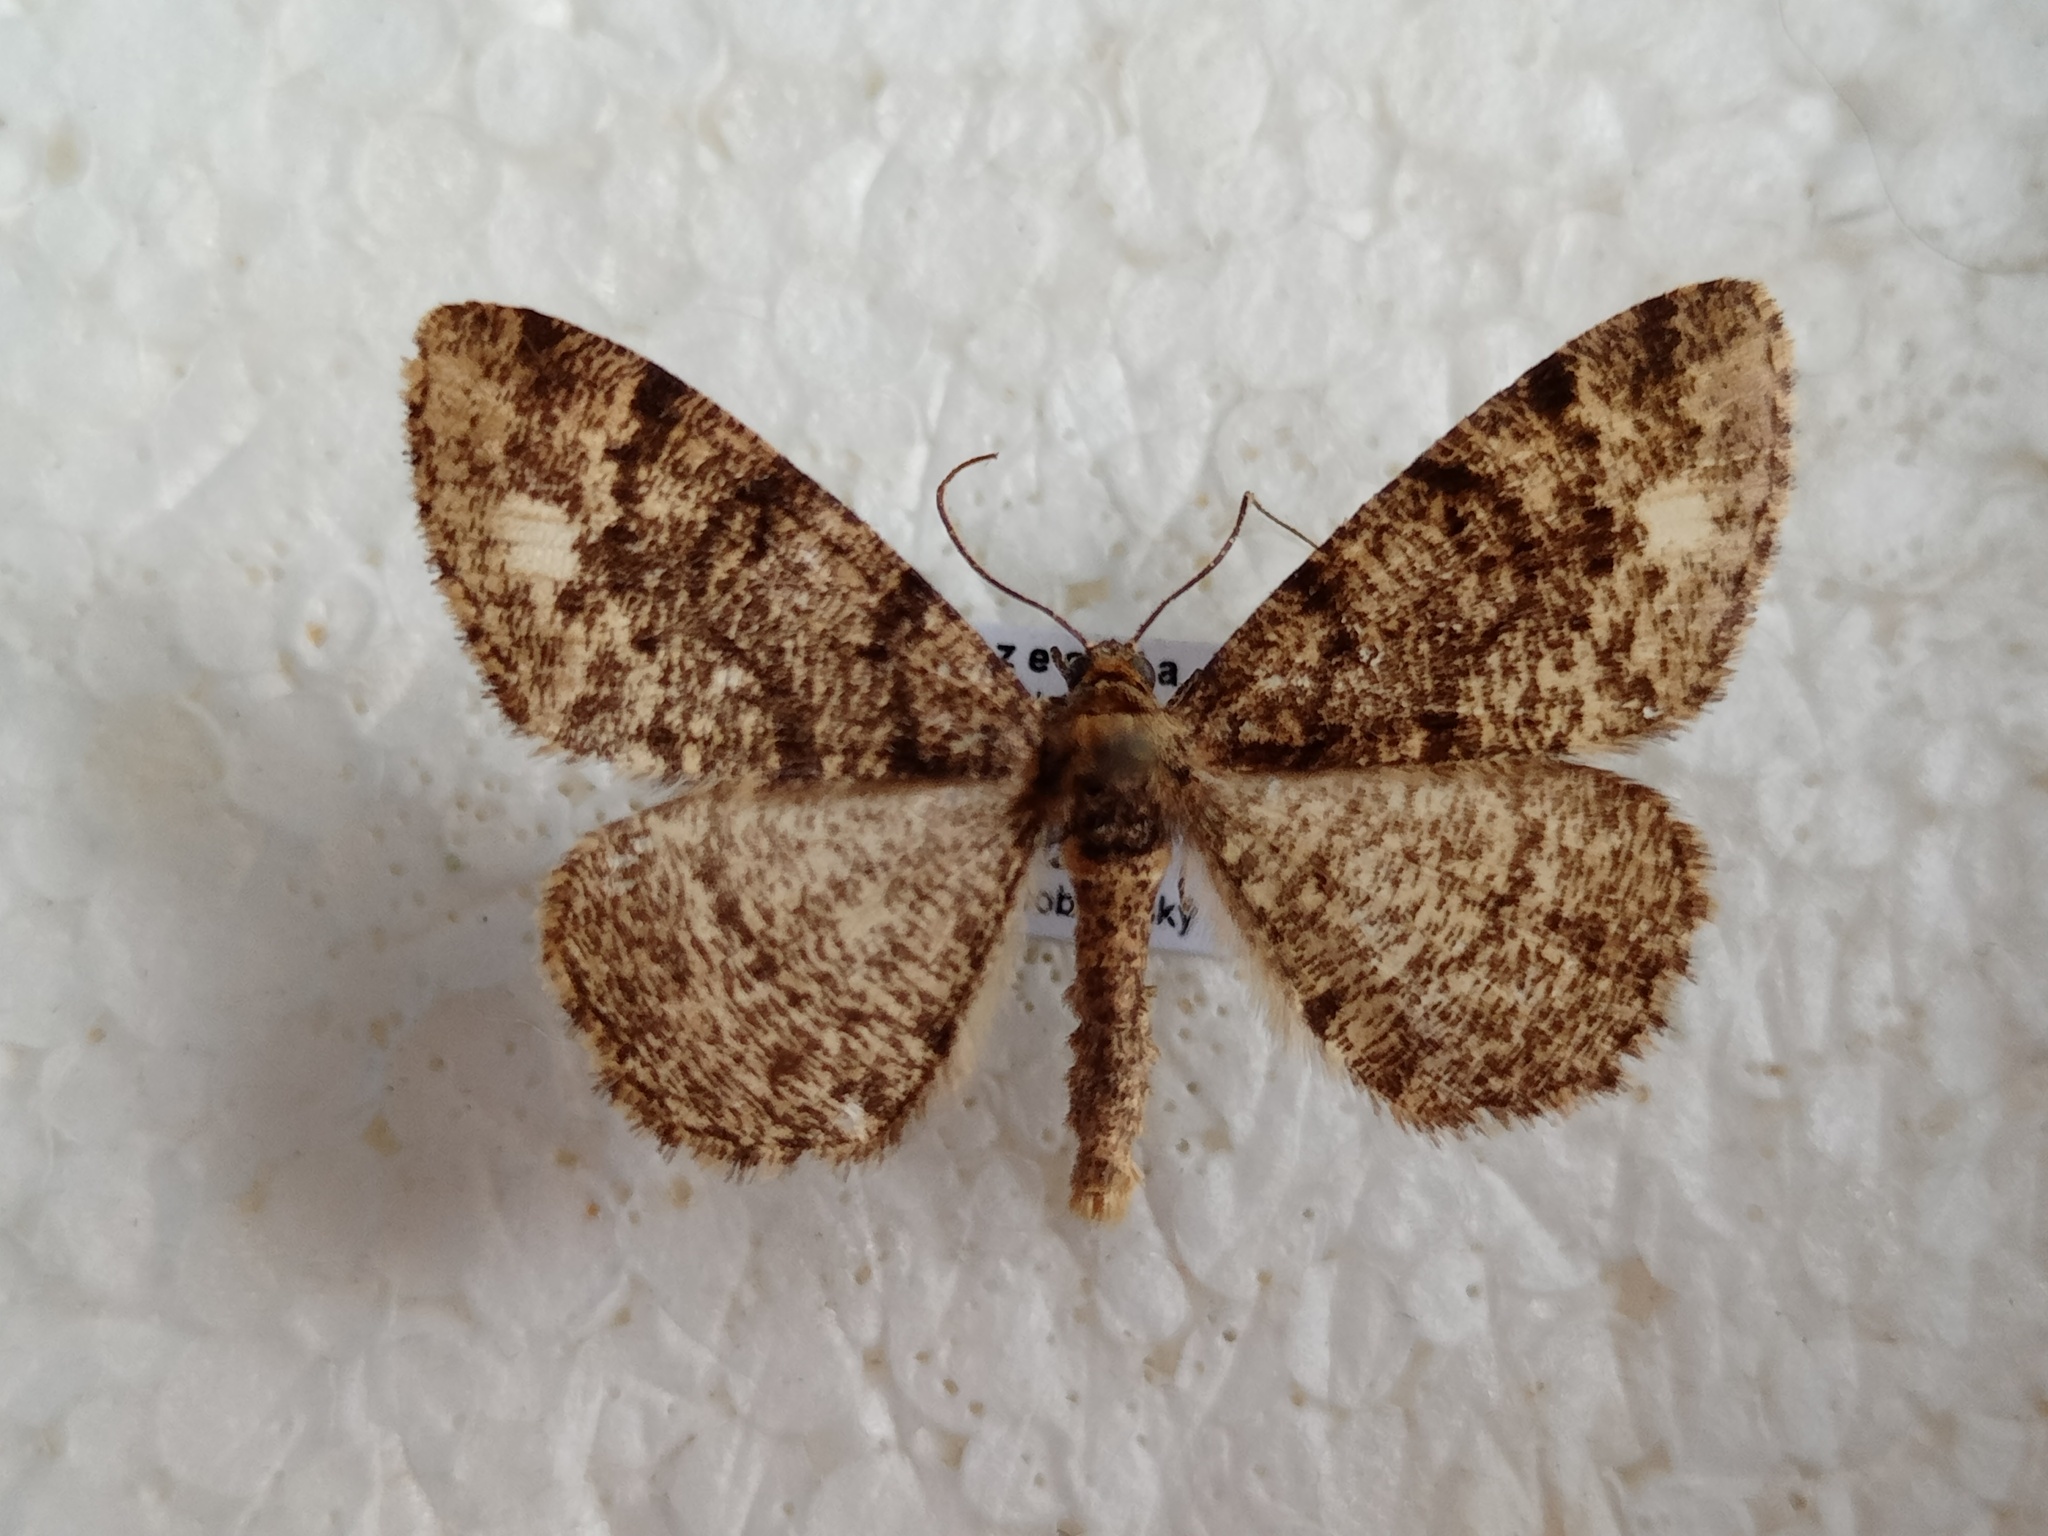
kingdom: Animalia
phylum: Arthropoda
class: Insecta
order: Lepidoptera
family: Geometridae
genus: Parectropis
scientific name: Parectropis similaria
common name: Brindled white-spot
